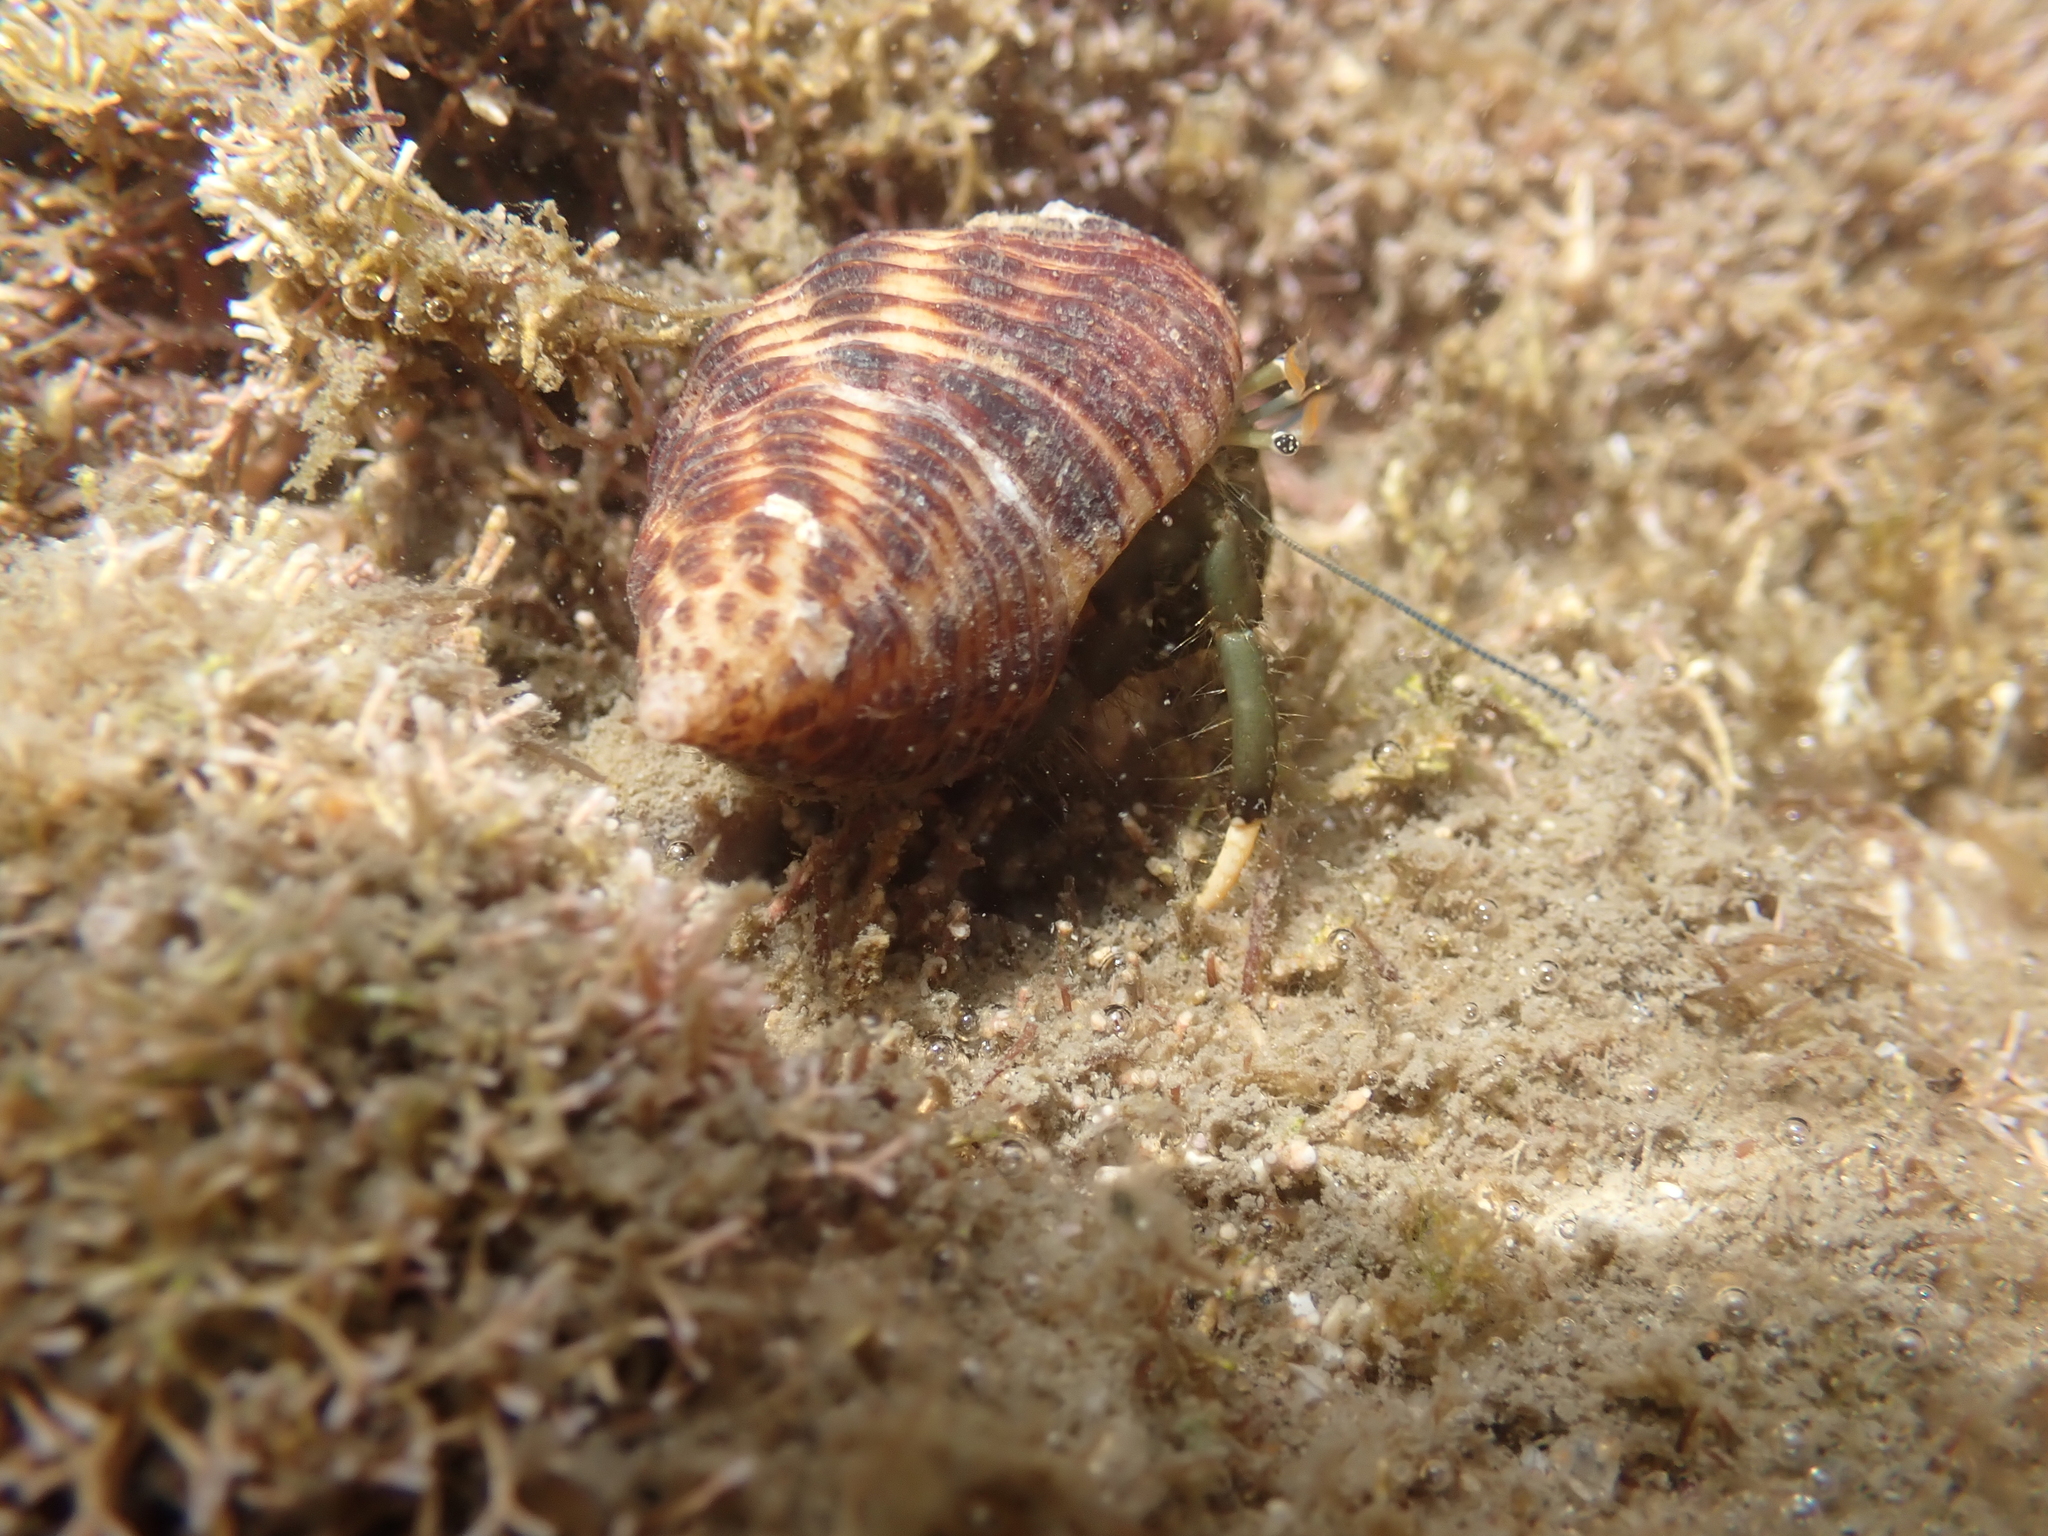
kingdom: Animalia
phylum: Arthropoda
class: Malacostraca
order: Decapoda
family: Diogenidae
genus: Clibanarius
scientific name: Clibanarius virescens
